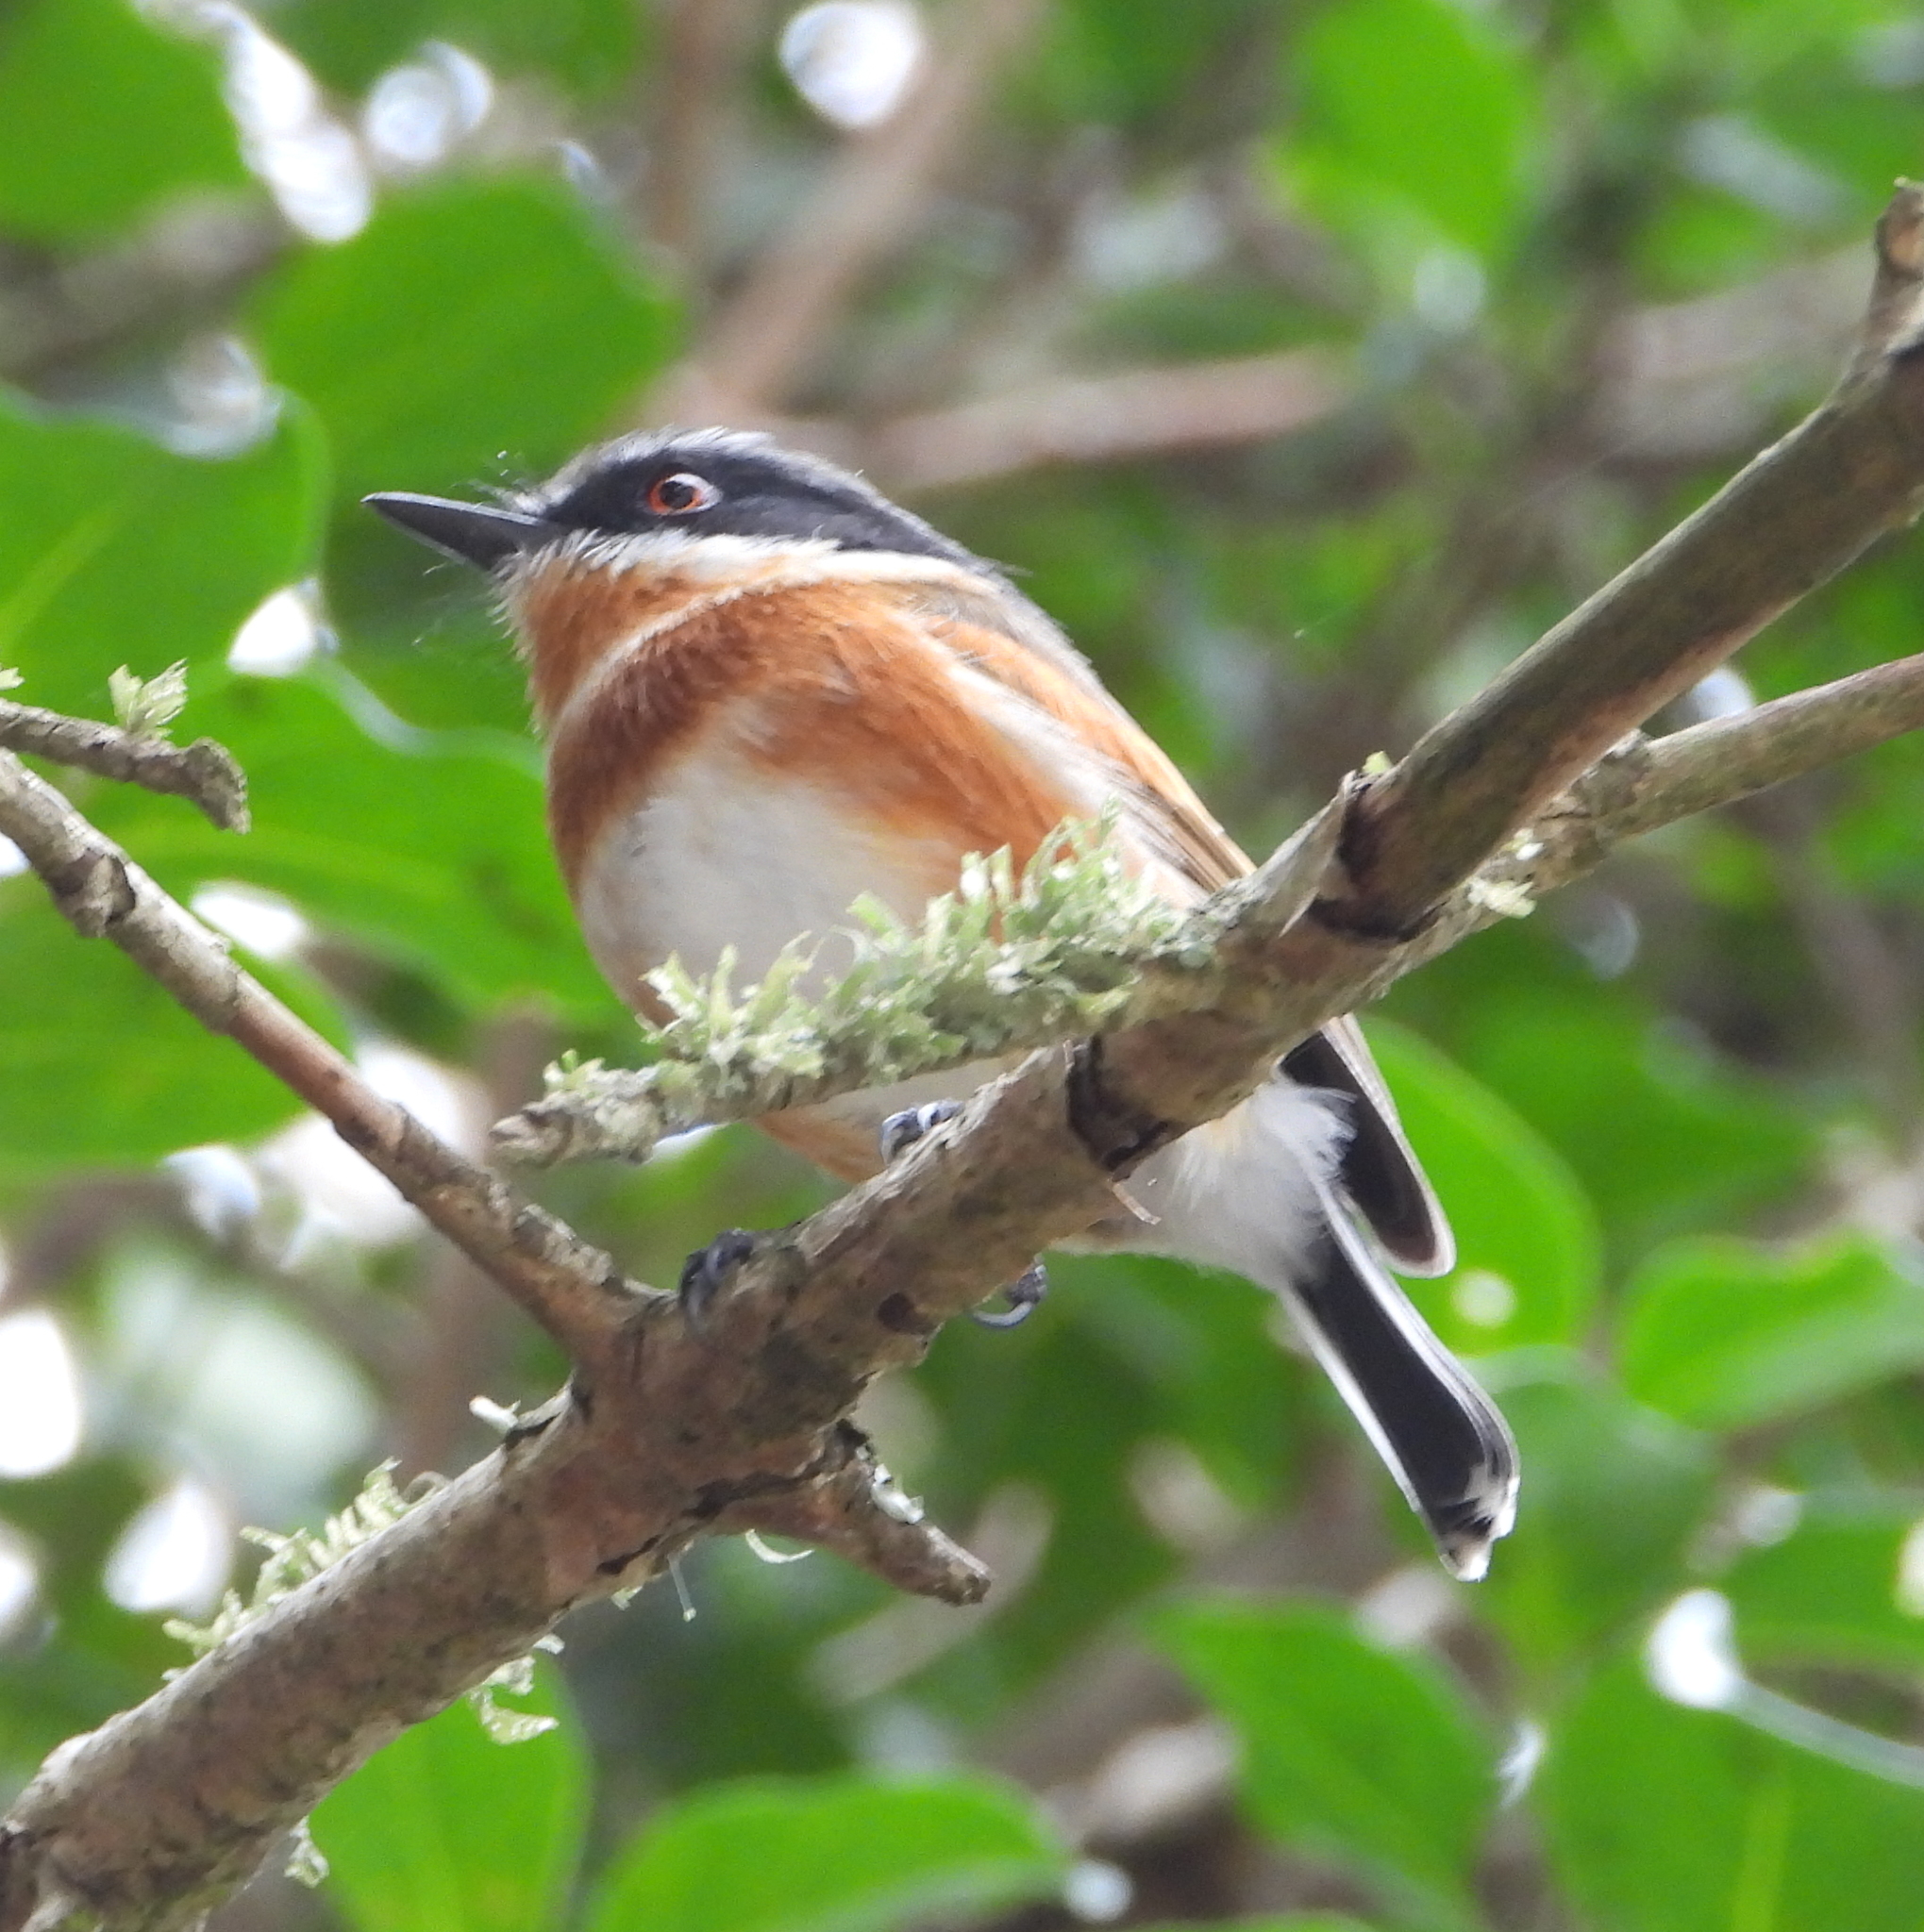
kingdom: Animalia
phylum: Chordata
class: Aves
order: Passeriformes
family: Platysteiridae
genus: Batis
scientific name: Batis capensis
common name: Cape batis
